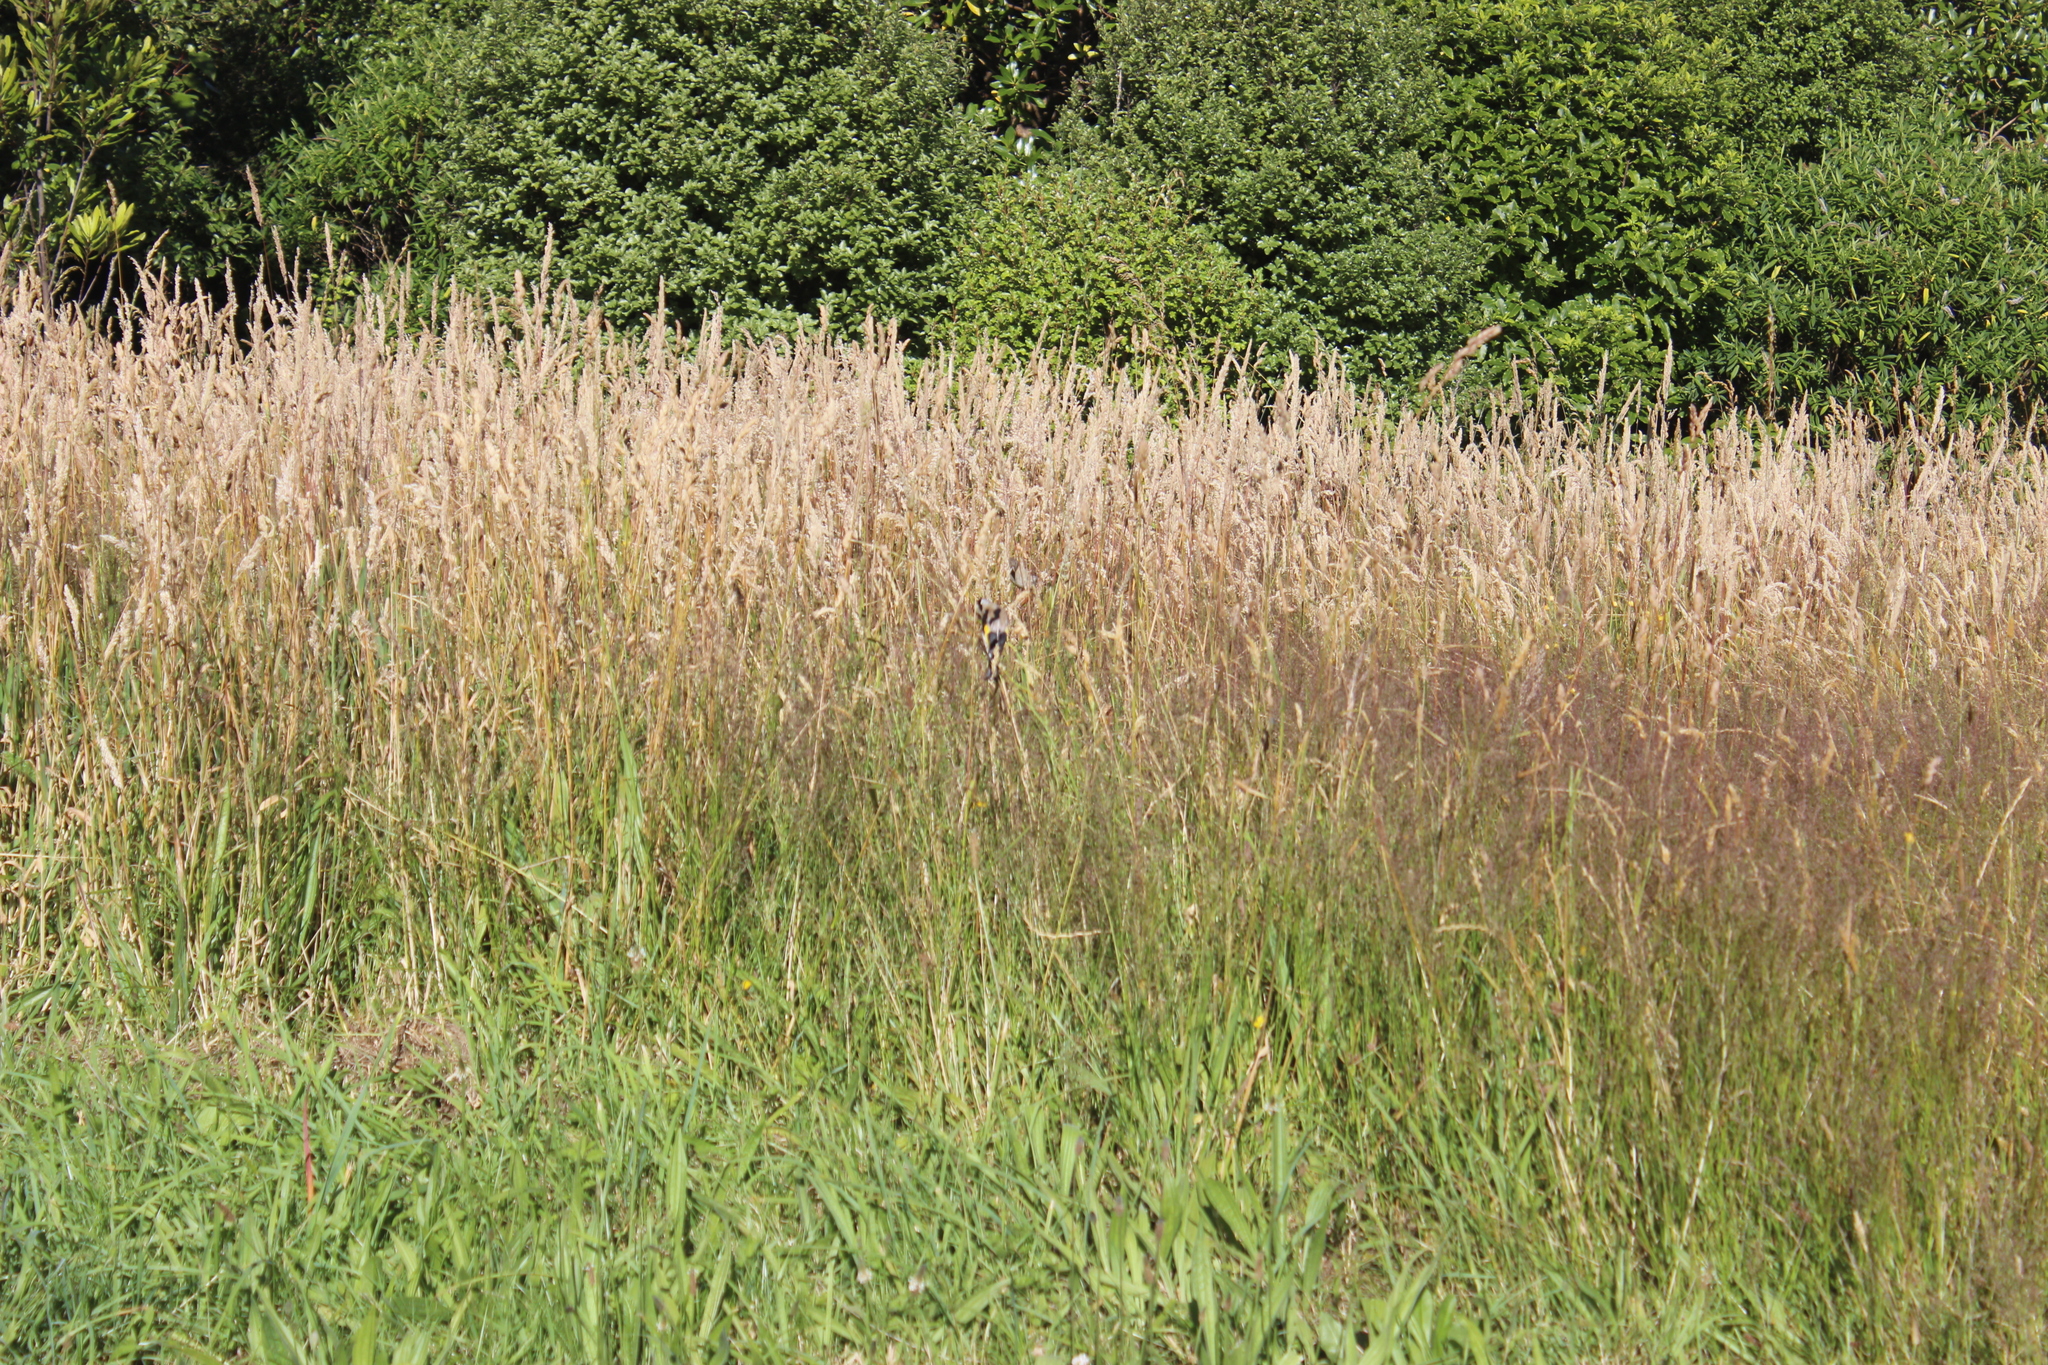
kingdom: Animalia
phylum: Chordata
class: Aves
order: Passeriformes
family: Fringillidae
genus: Carduelis
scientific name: Carduelis carduelis
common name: European goldfinch
